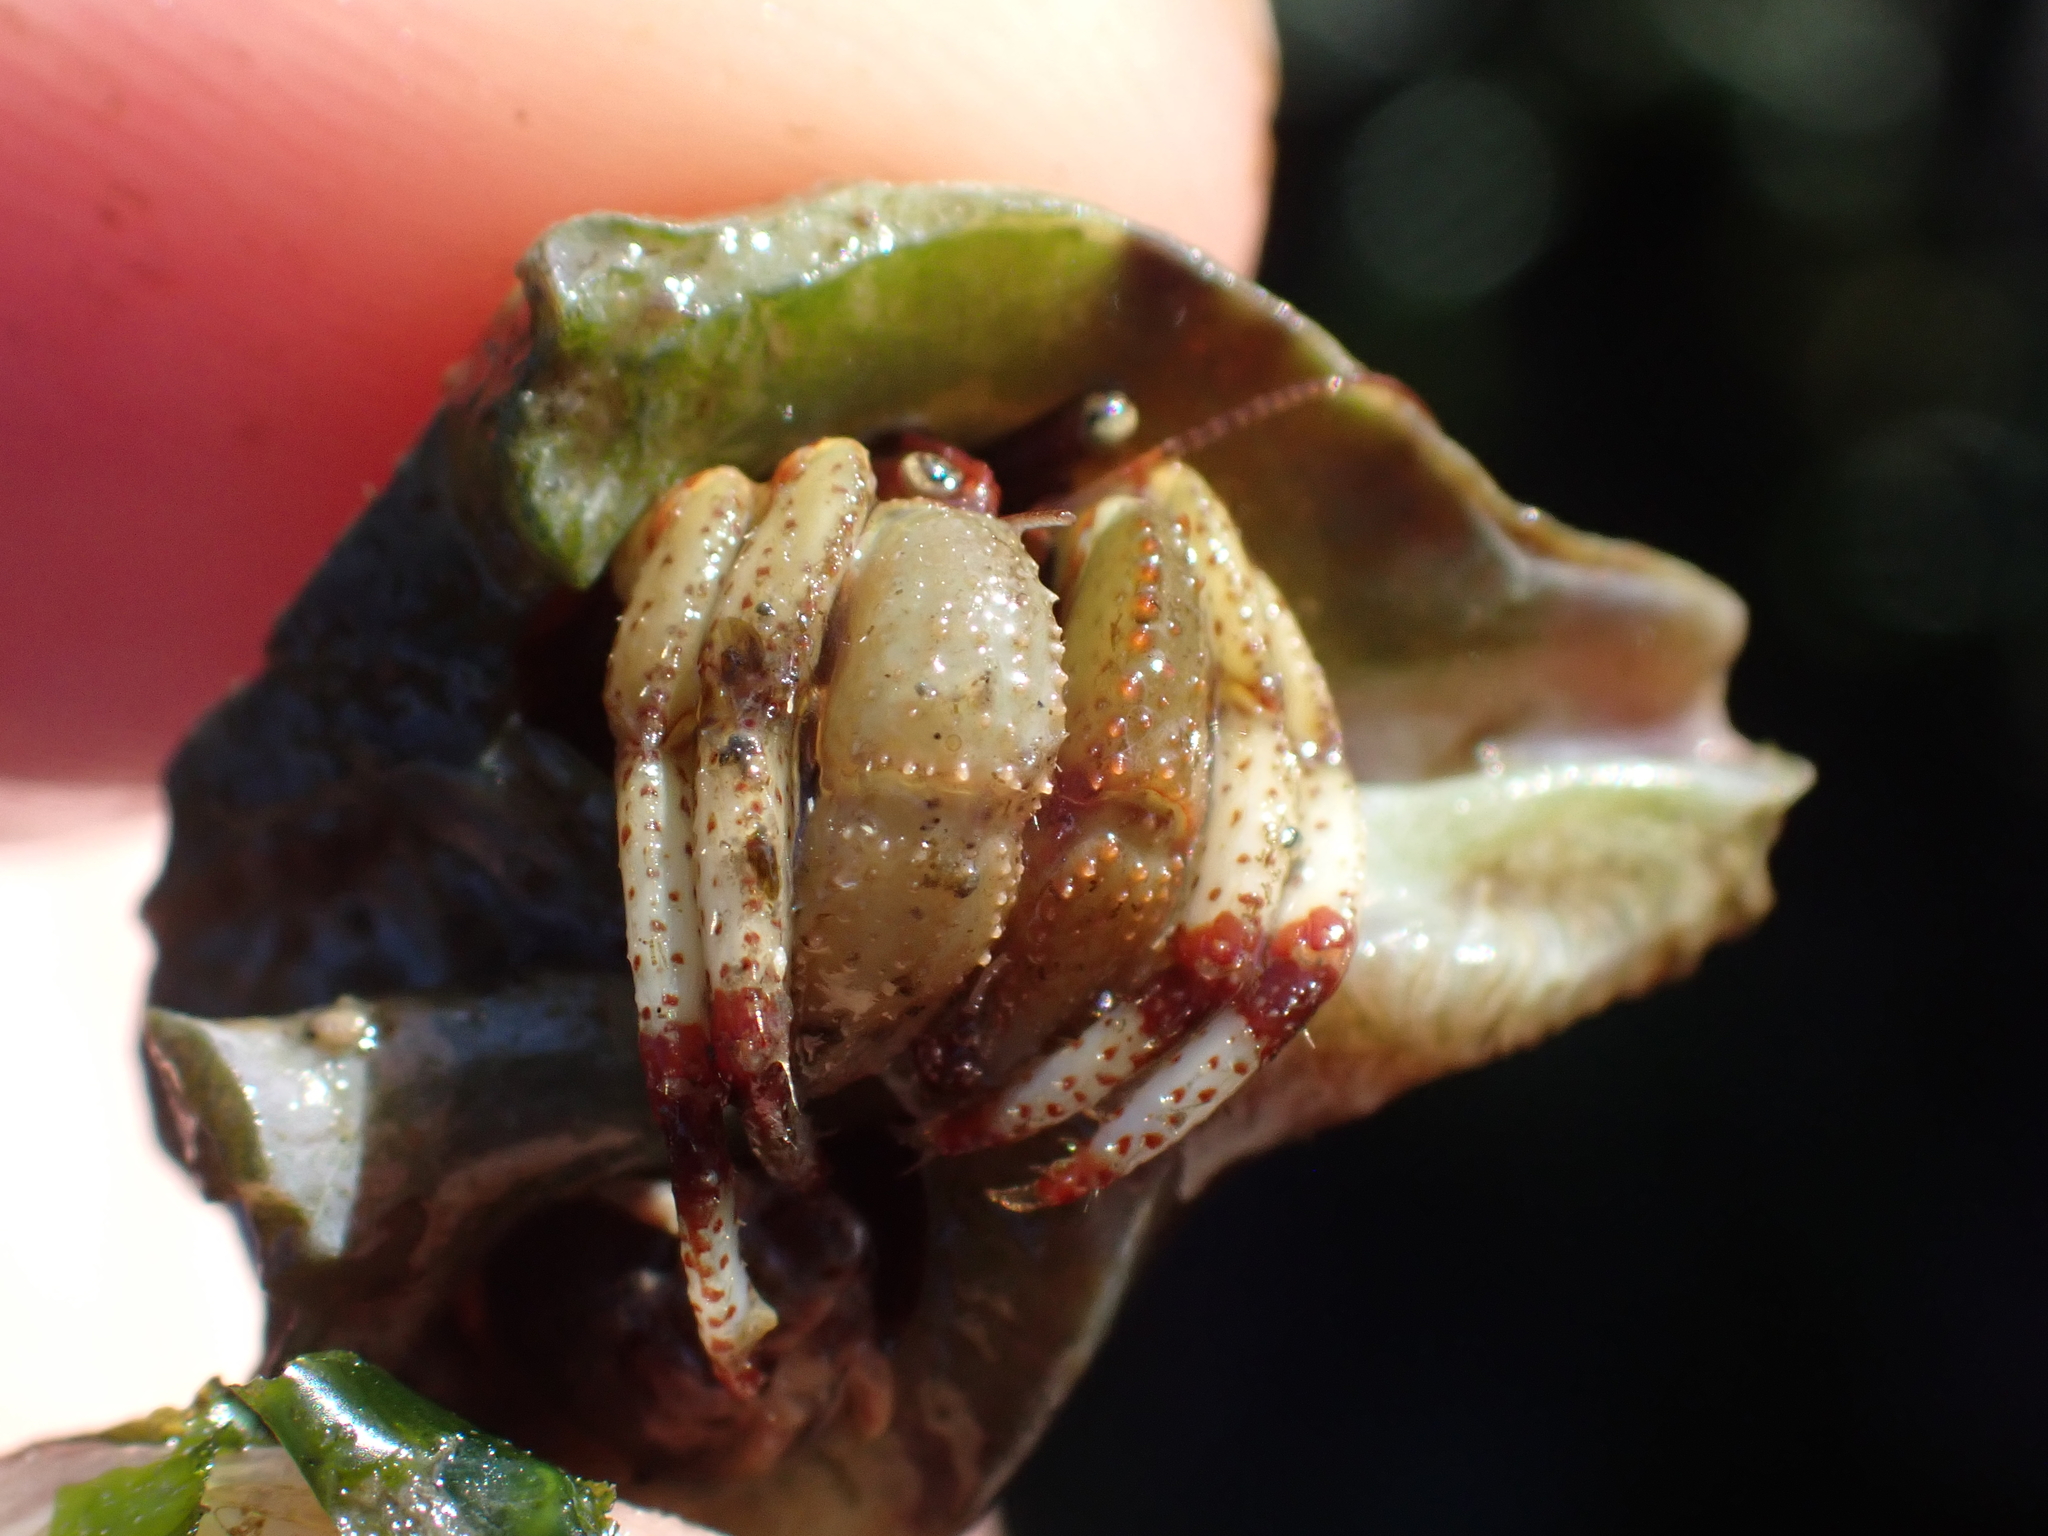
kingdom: Animalia
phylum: Arthropoda
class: Malacostraca
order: Decapoda
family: Paguridae
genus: Pagurus
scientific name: Pagurus beringanus
